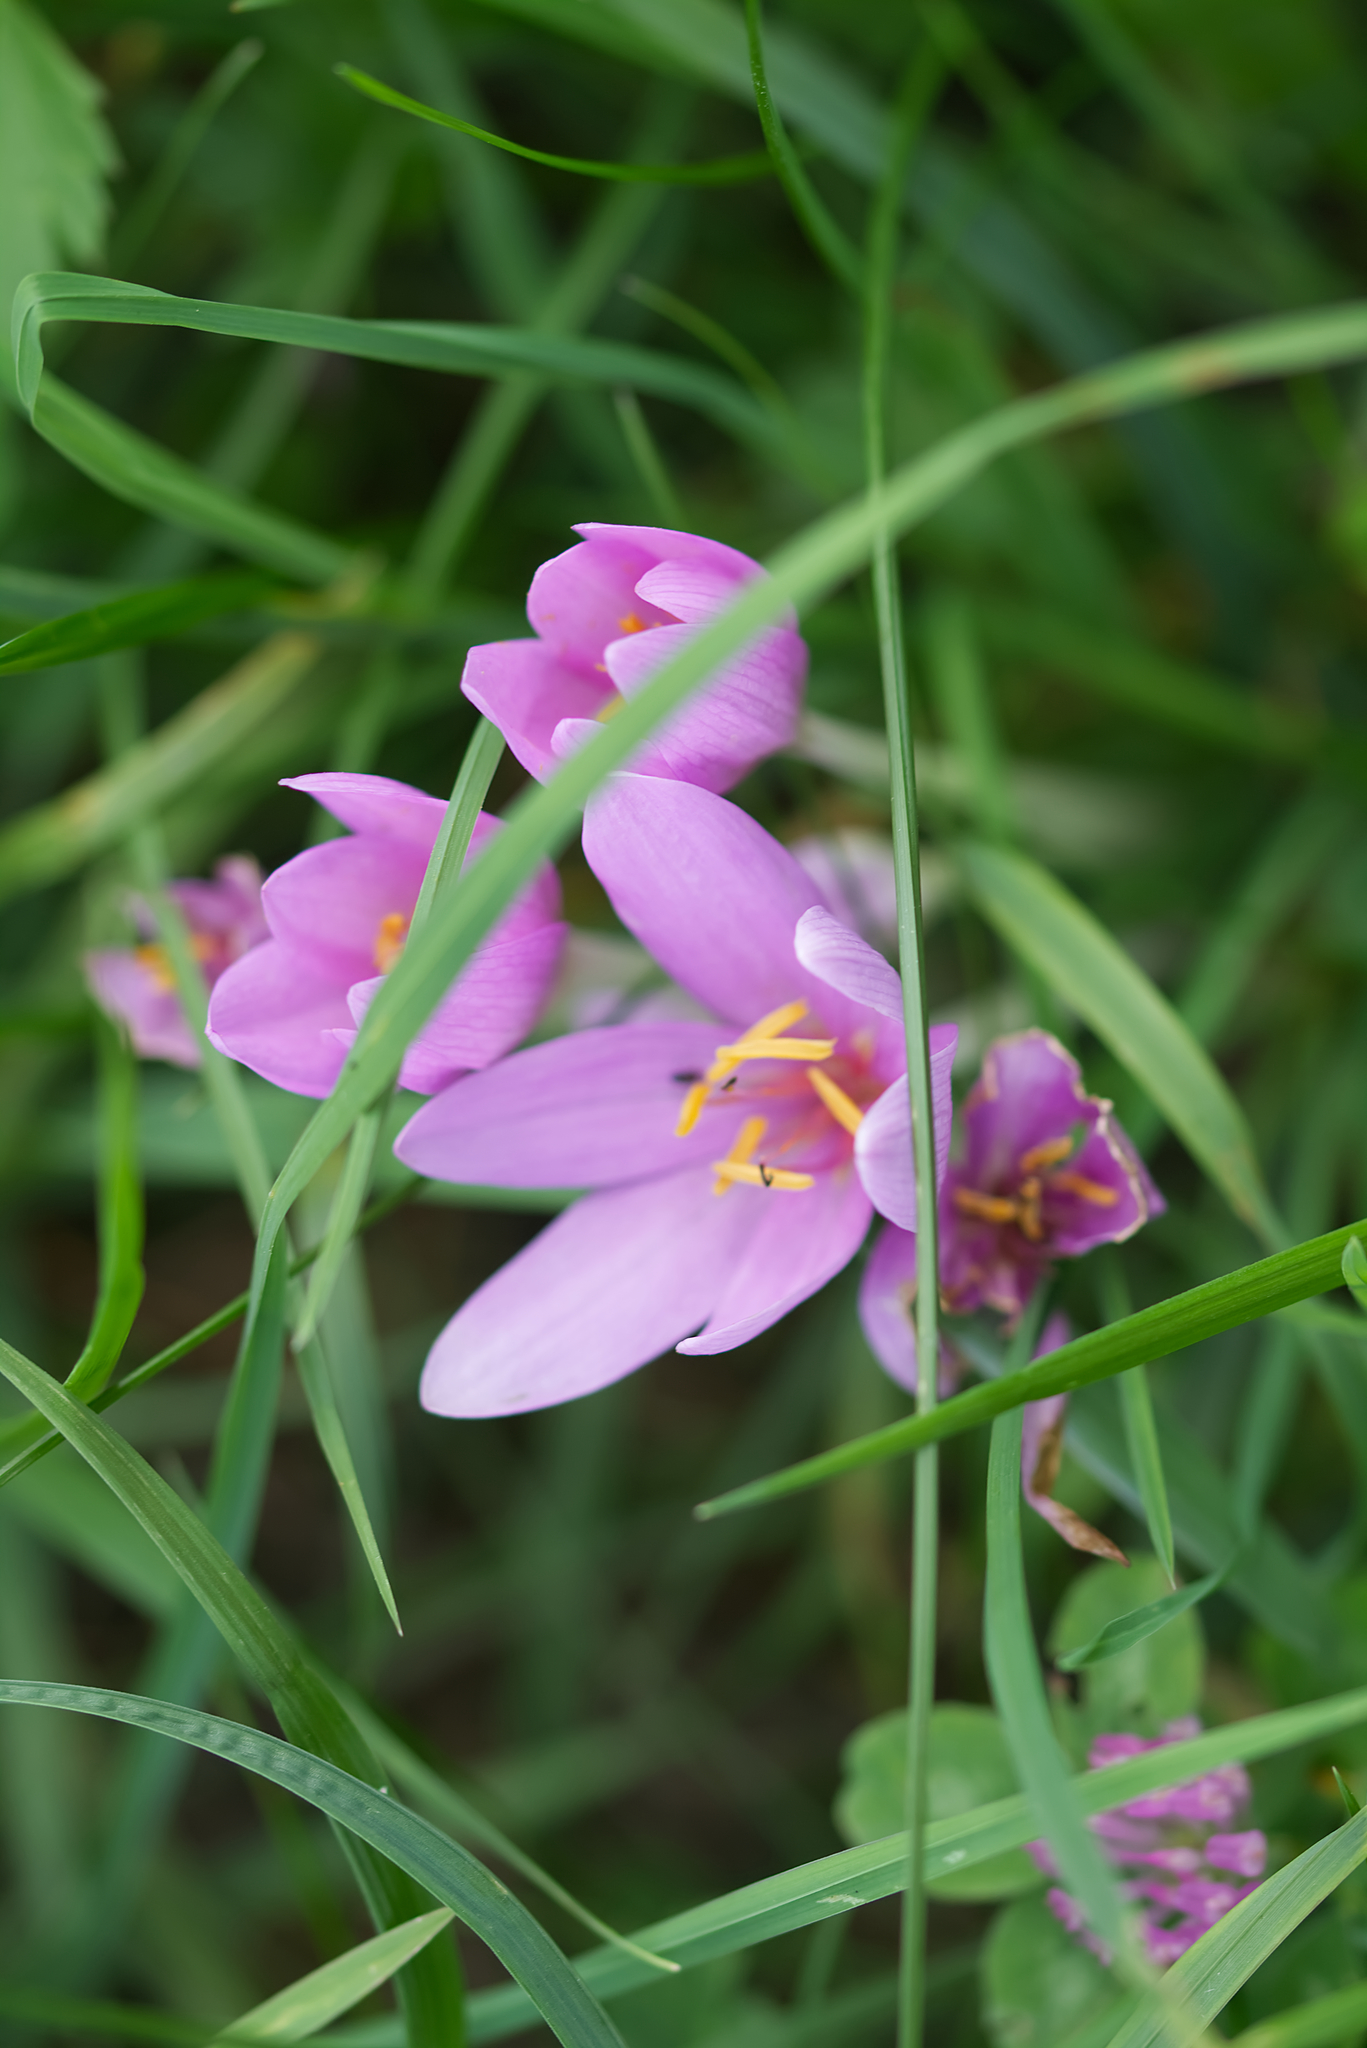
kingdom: Plantae
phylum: Tracheophyta
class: Liliopsida
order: Liliales
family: Colchicaceae
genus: Colchicum
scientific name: Colchicum autumnale
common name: Autumn crocus
